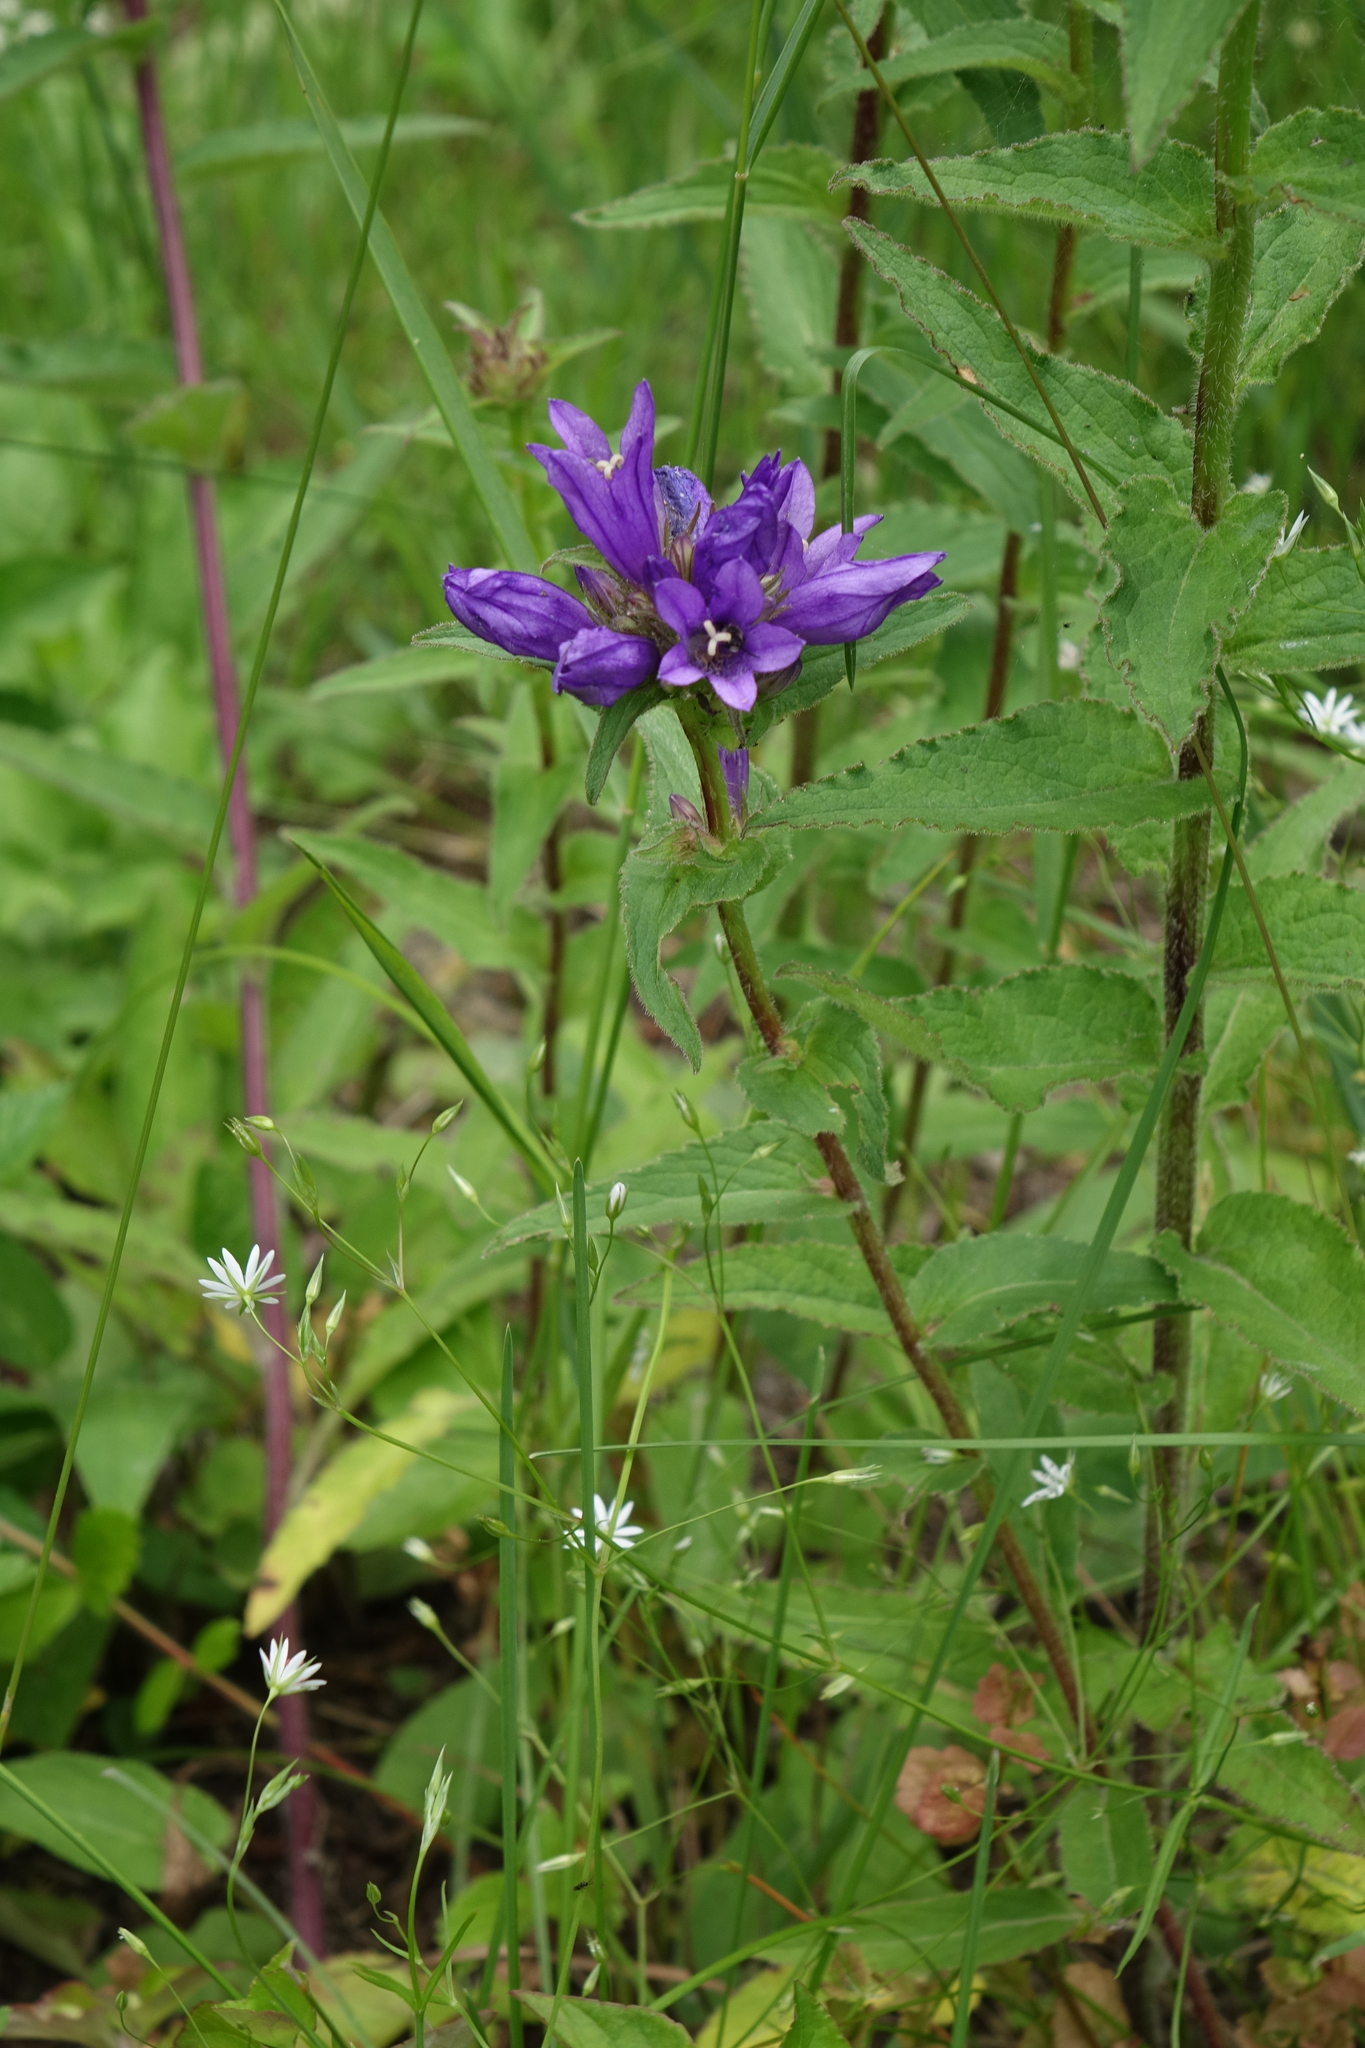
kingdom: Plantae
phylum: Tracheophyta
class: Magnoliopsida
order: Asterales
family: Campanulaceae
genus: Campanula
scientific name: Campanula glomerata
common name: Clustered bellflower
